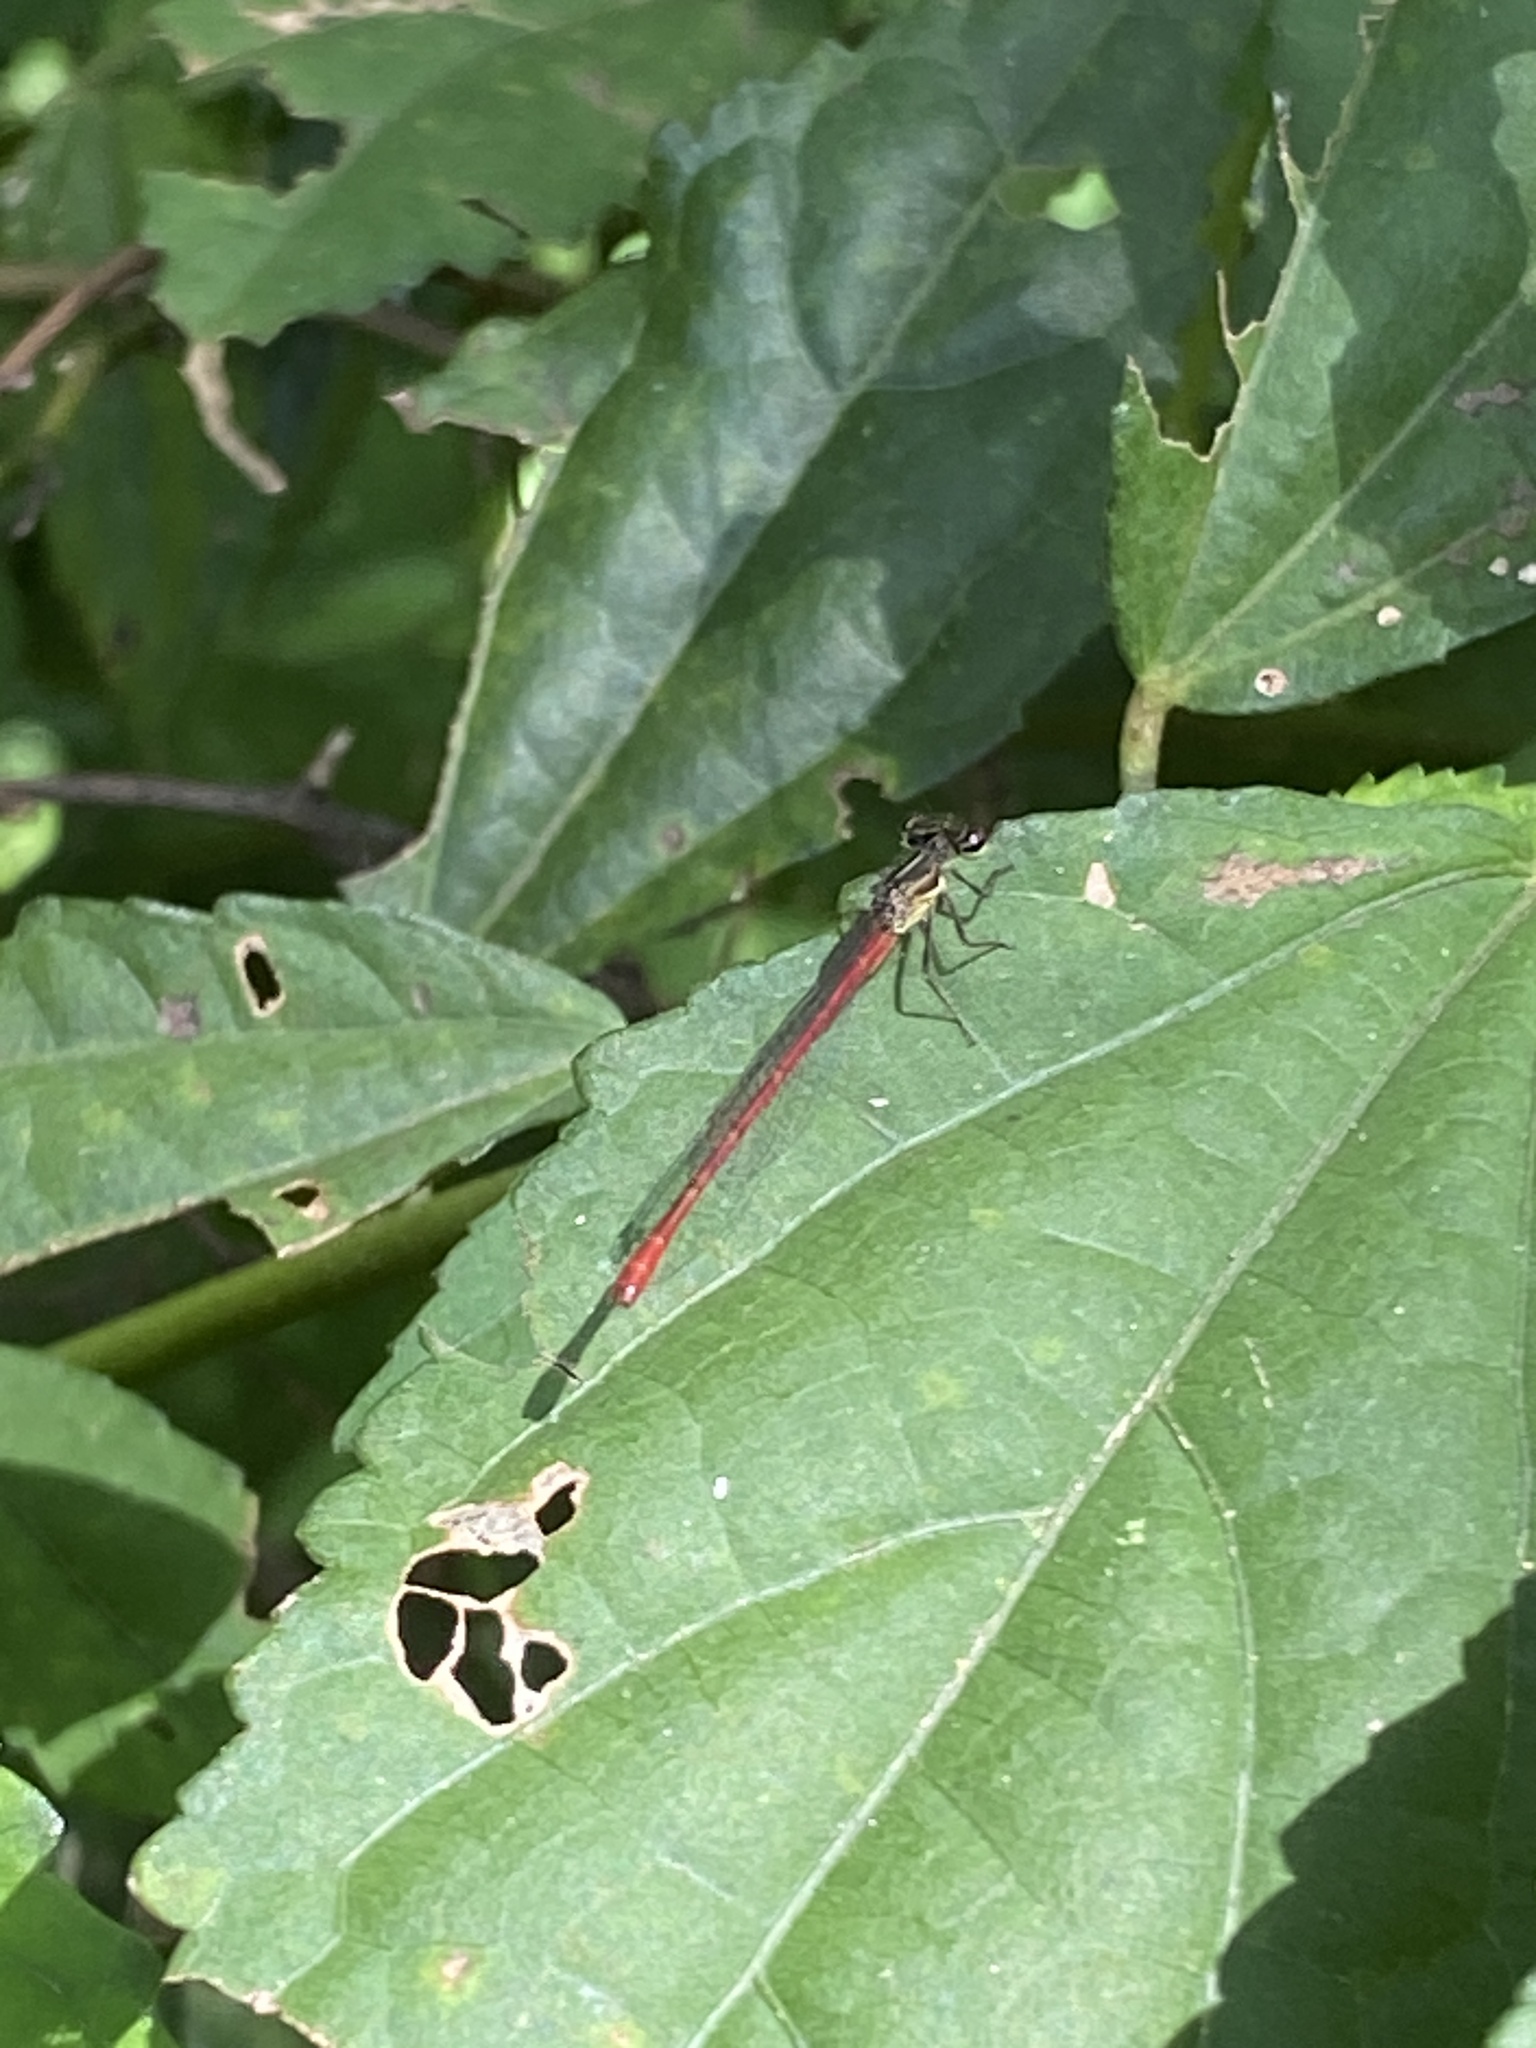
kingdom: Animalia
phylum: Arthropoda
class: Insecta
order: Odonata
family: Coenagrionidae
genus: Telebasis
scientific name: Telebasis willinki
